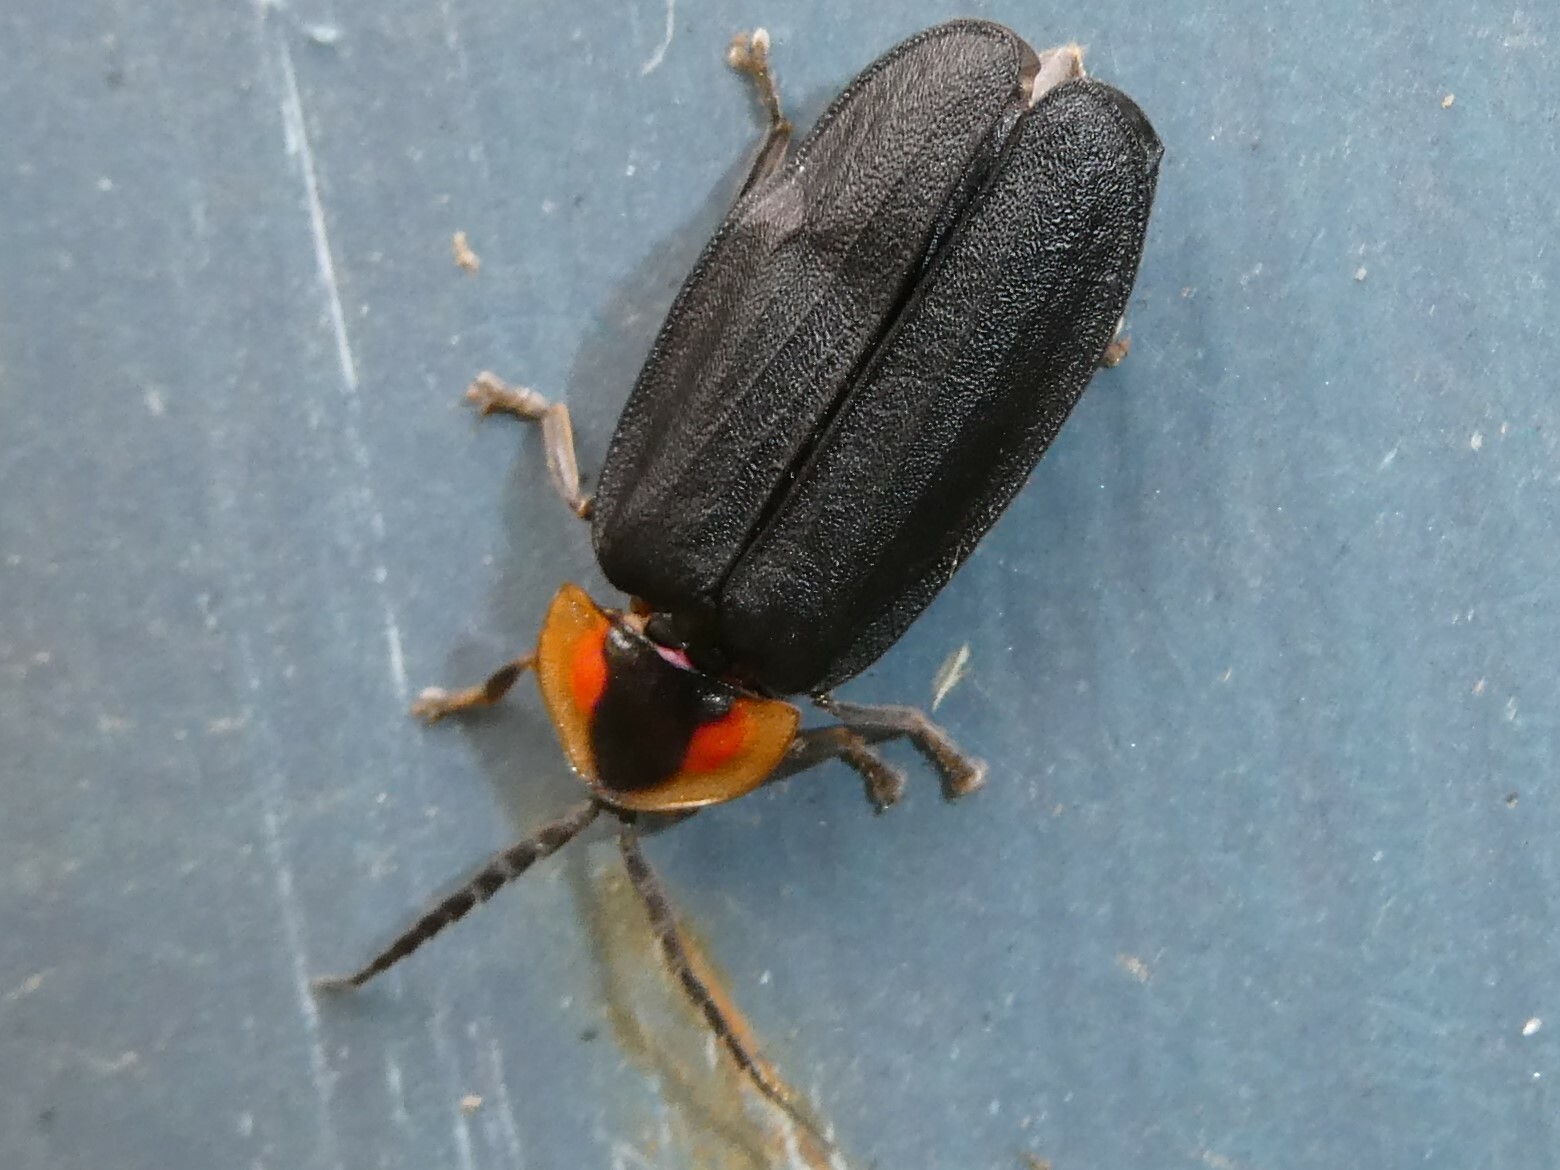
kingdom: Animalia
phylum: Arthropoda
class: Insecta
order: Coleoptera
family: Lampyridae
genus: Lucidota
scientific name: Lucidota atra
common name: Black firefly
